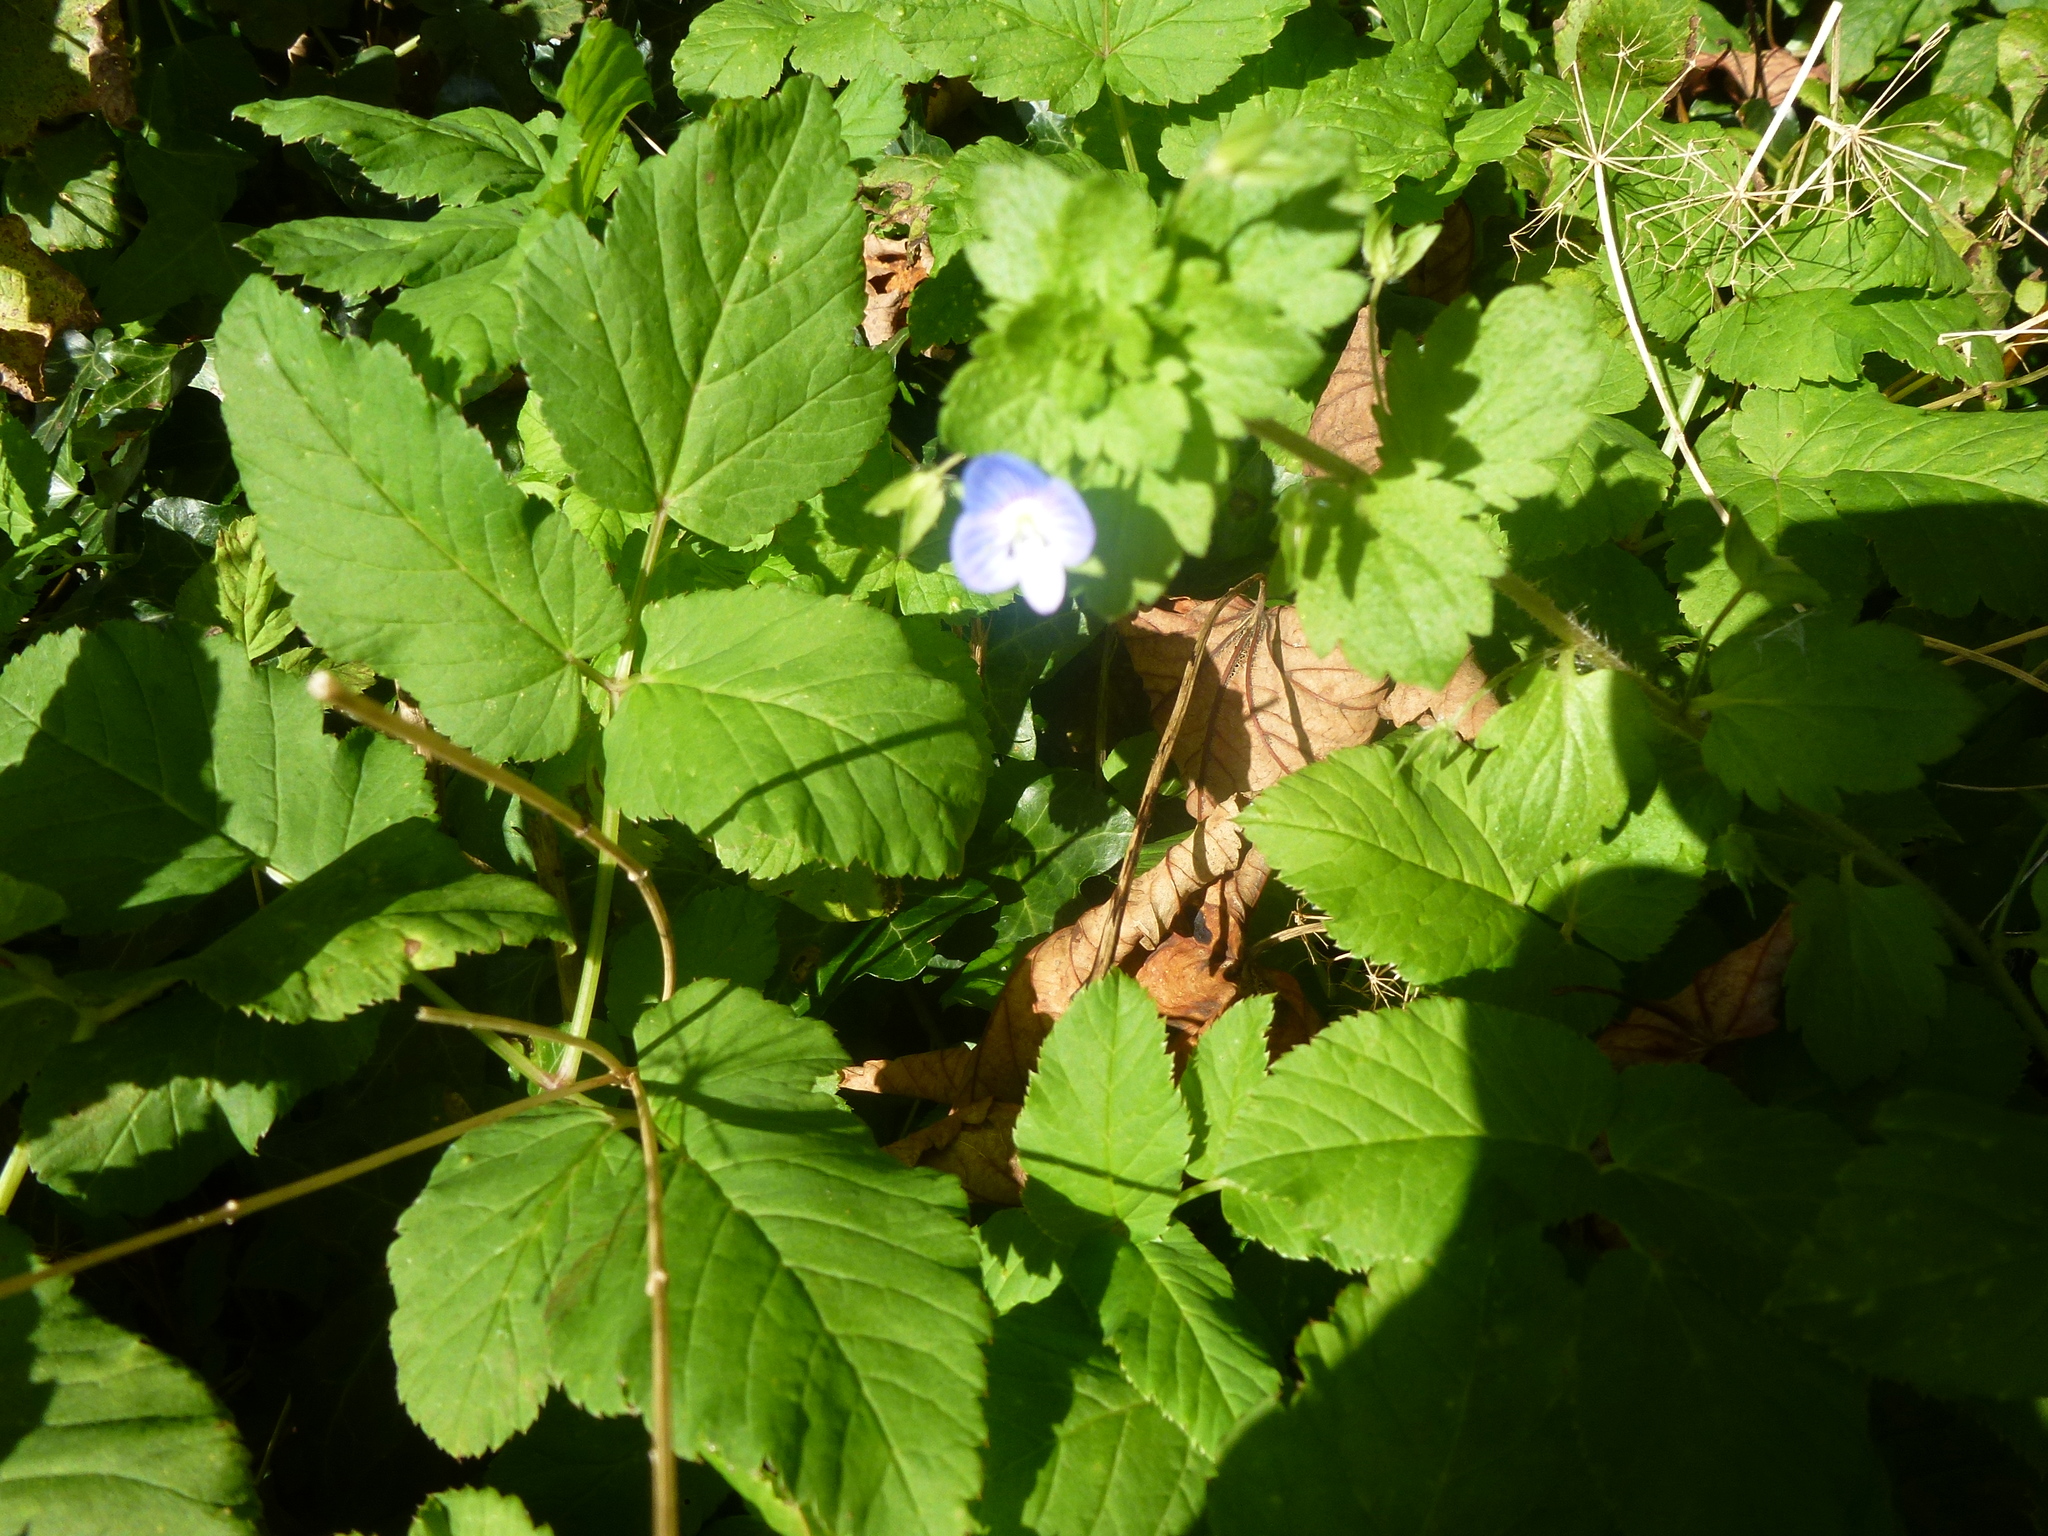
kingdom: Plantae
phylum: Tracheophyta
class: Magnoliopsida
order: Lamiales
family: Plantaginaceae
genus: Veronica
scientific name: Veronica persica
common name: Common field-speedwell
